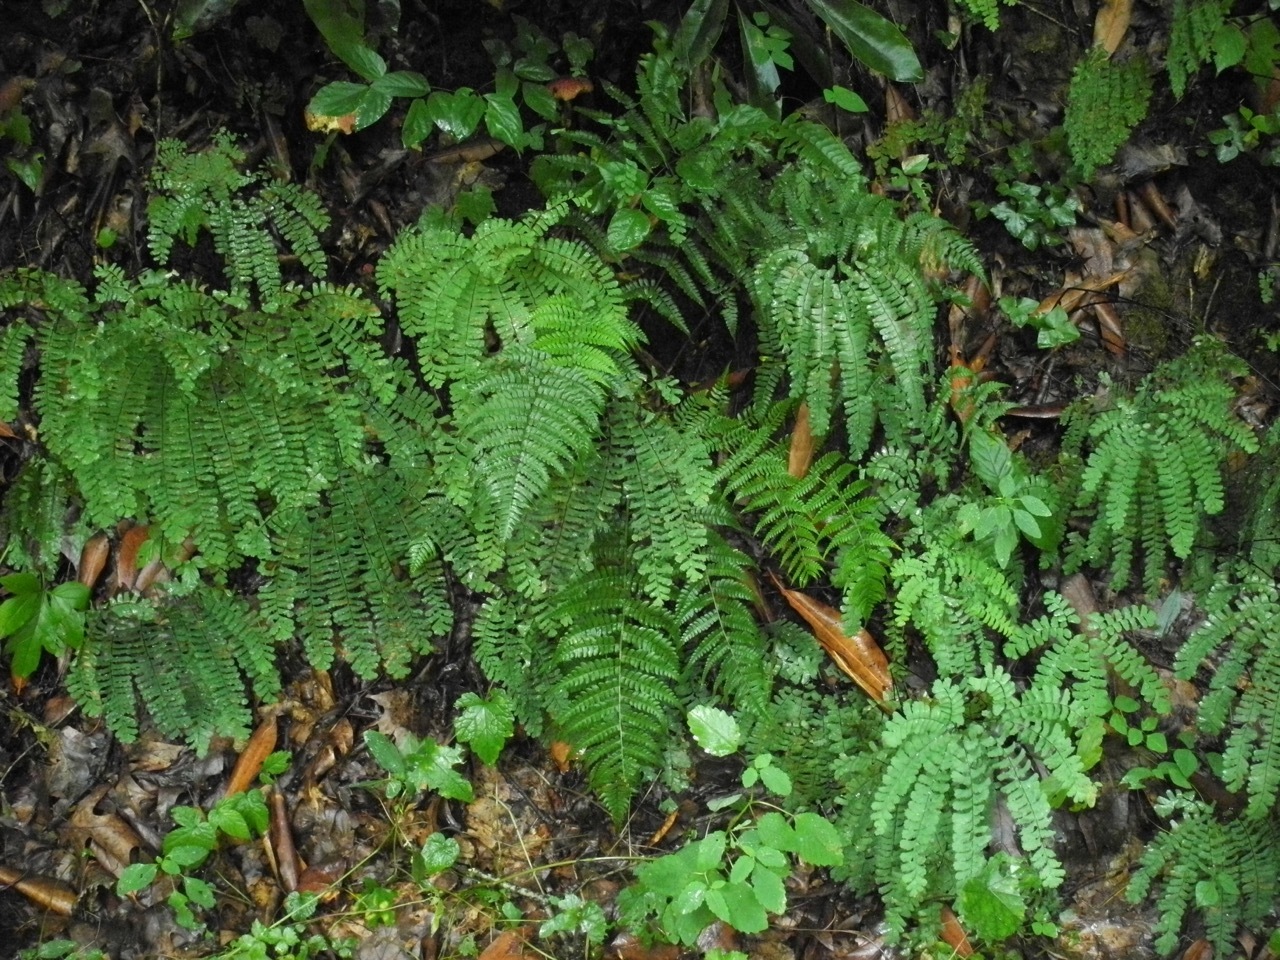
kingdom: Plantae
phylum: Tracheophyta
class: Polypodiopsida
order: Polypodiales
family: Pteridaceae
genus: Adiantum
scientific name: Adiantum pedatum
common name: Five-finger fern
